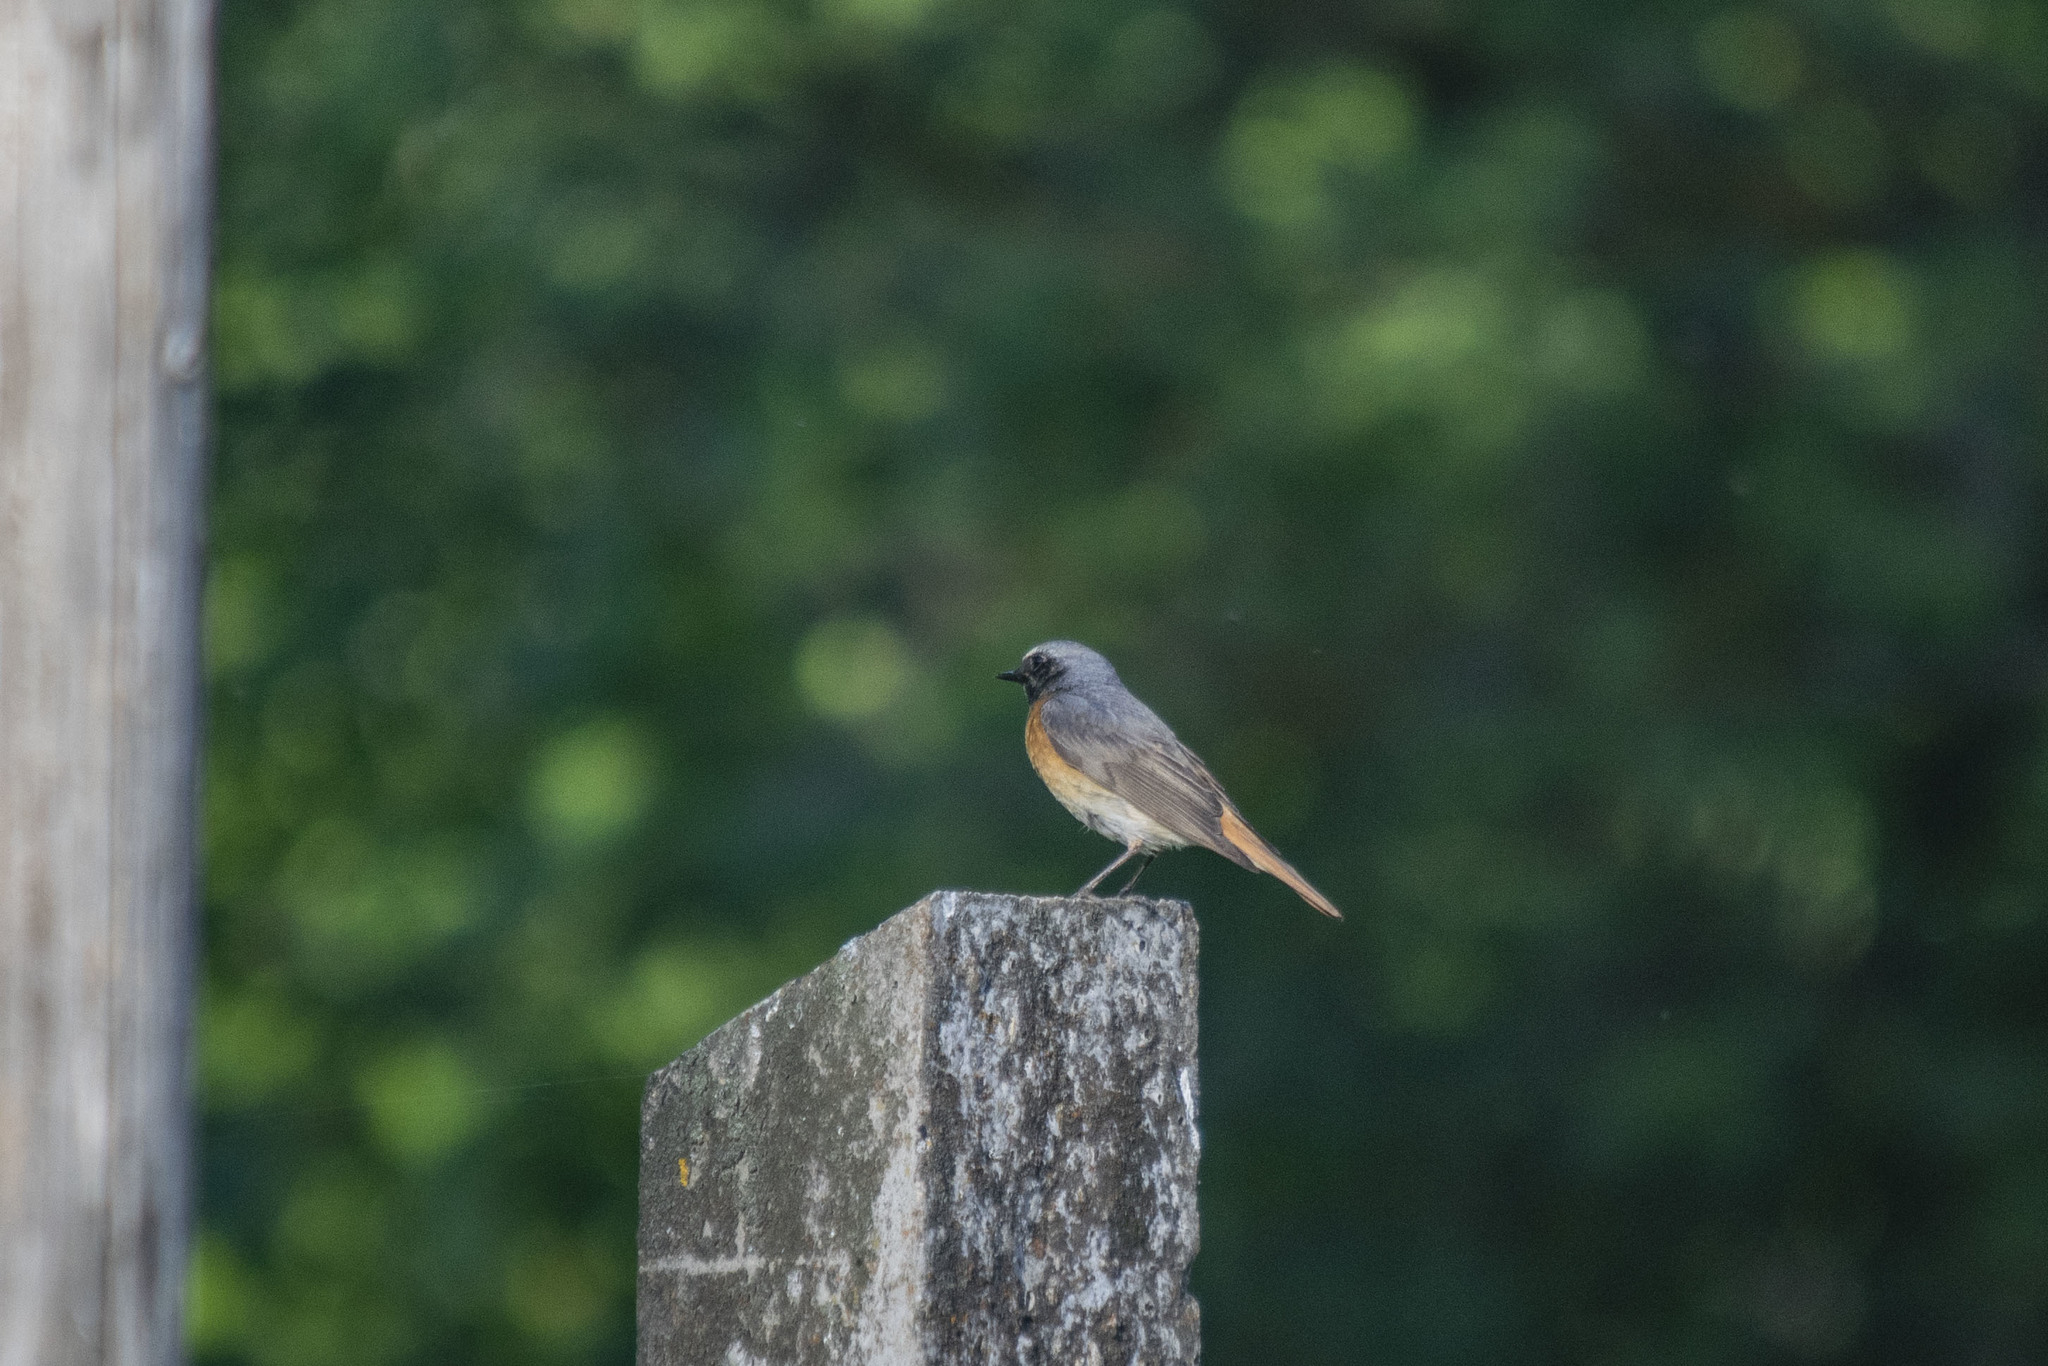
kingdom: Animalia
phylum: Chordata
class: Aves
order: Passeriformes
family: Muscicapidae
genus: Phoenicurus
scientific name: Phoenicurus phoenicurus
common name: Common redstart
